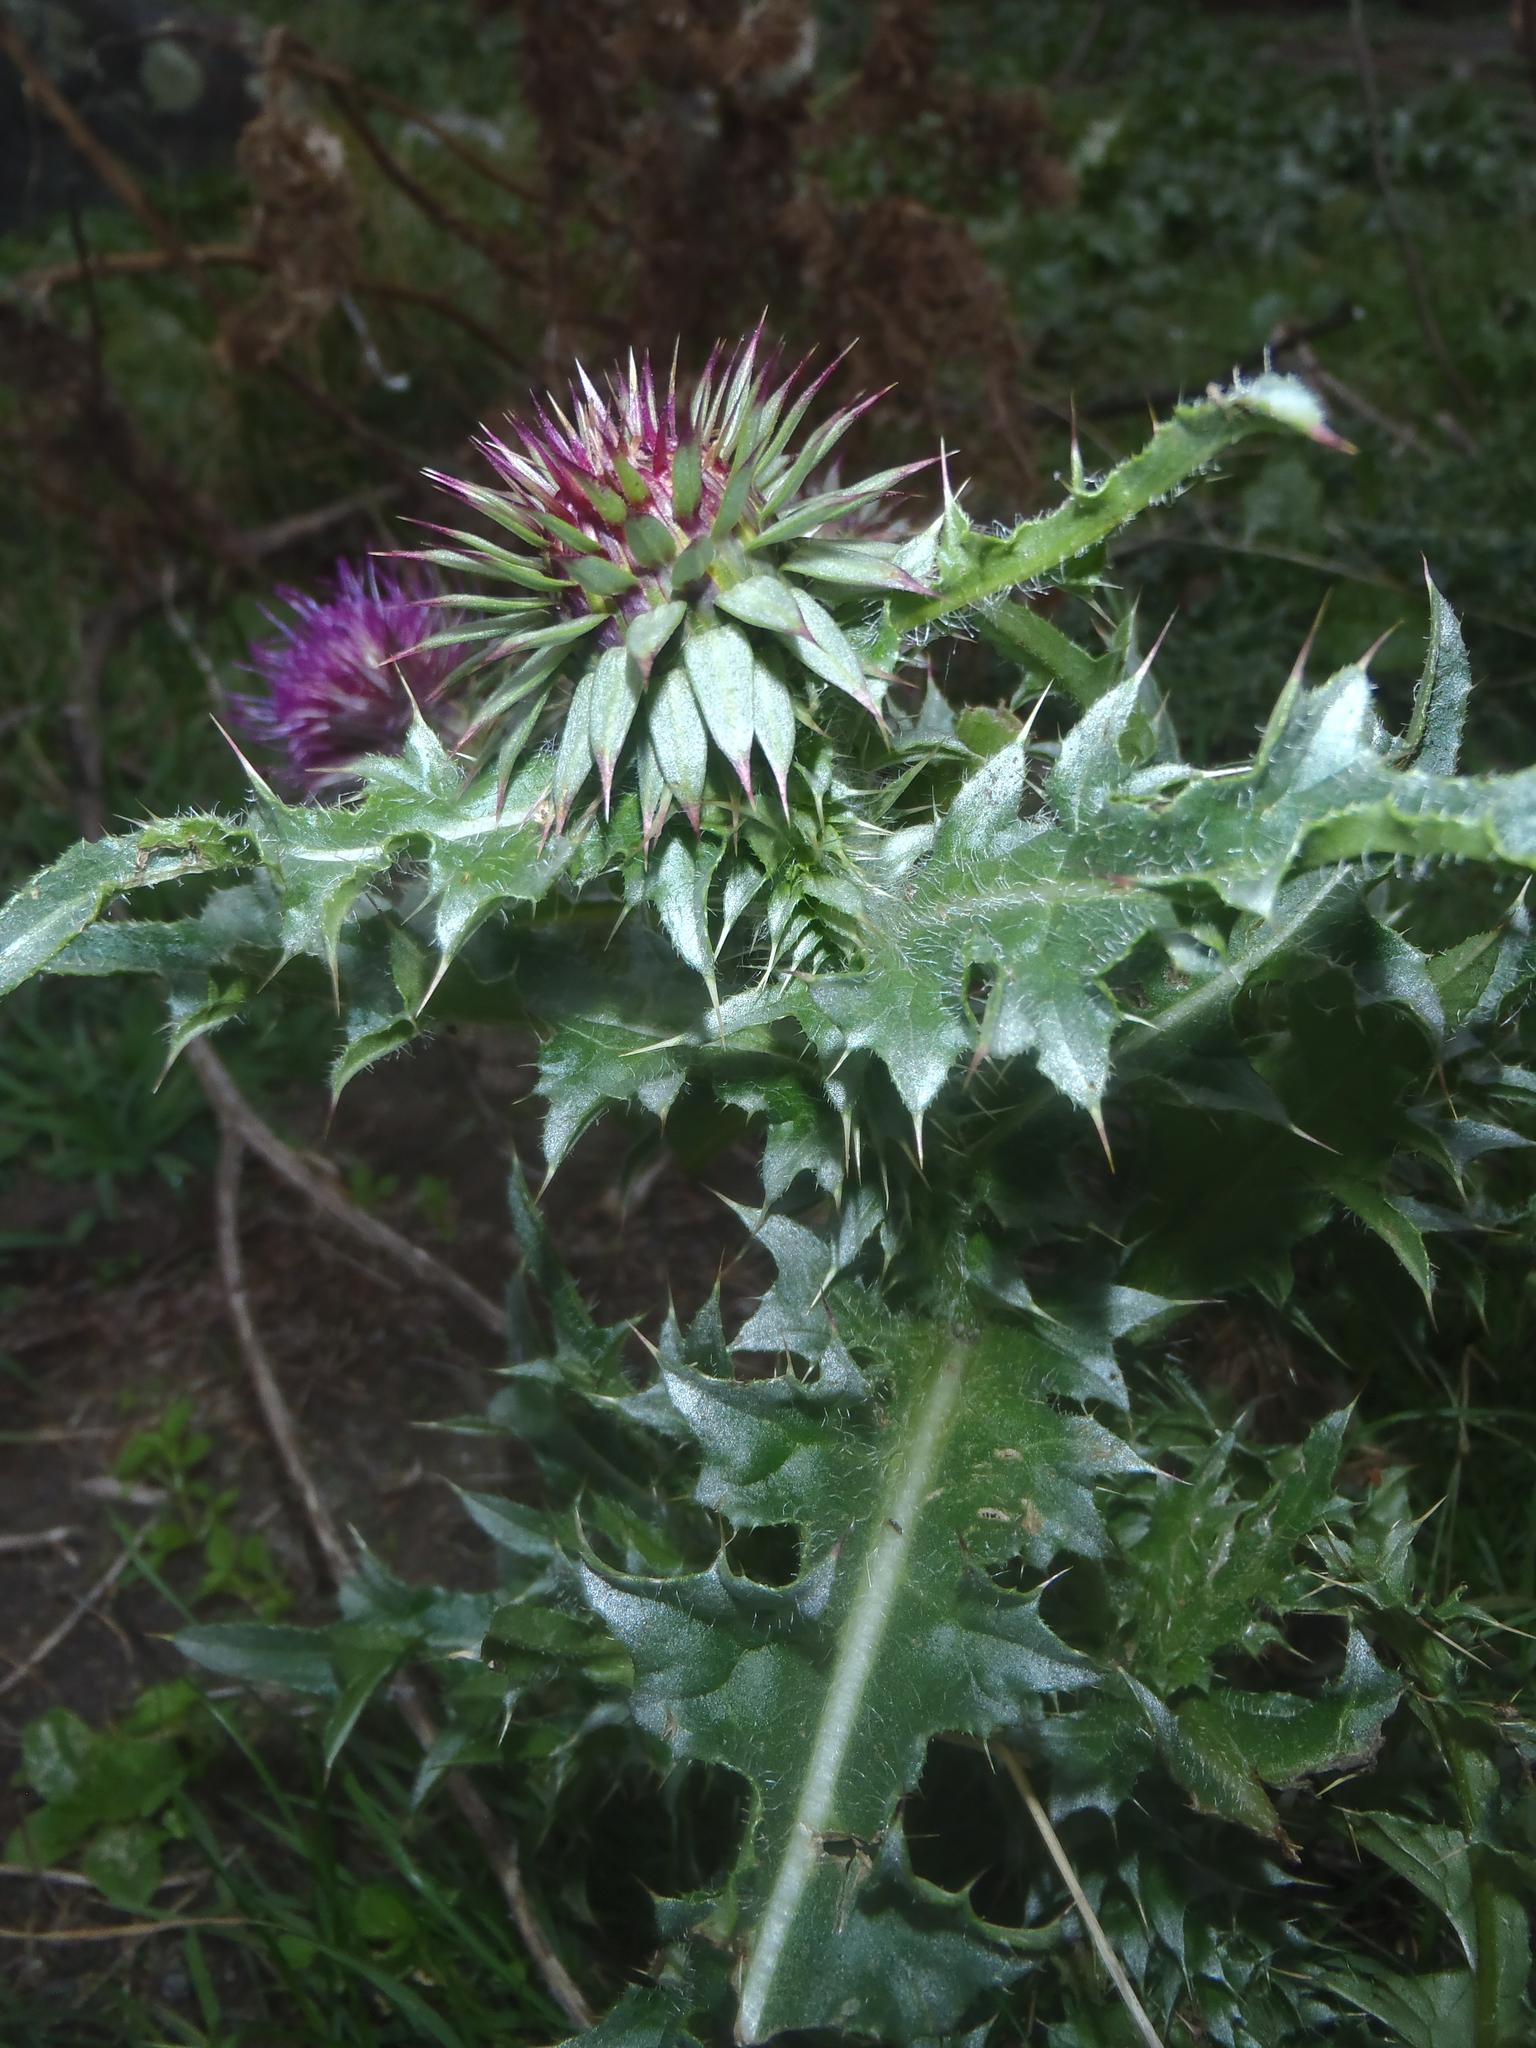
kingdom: Plantae
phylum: Tracheophyta
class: Magnoliopsida
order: Asterales
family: Asteraceae
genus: Carduus
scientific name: Carduus nutans
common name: Musk thistle
